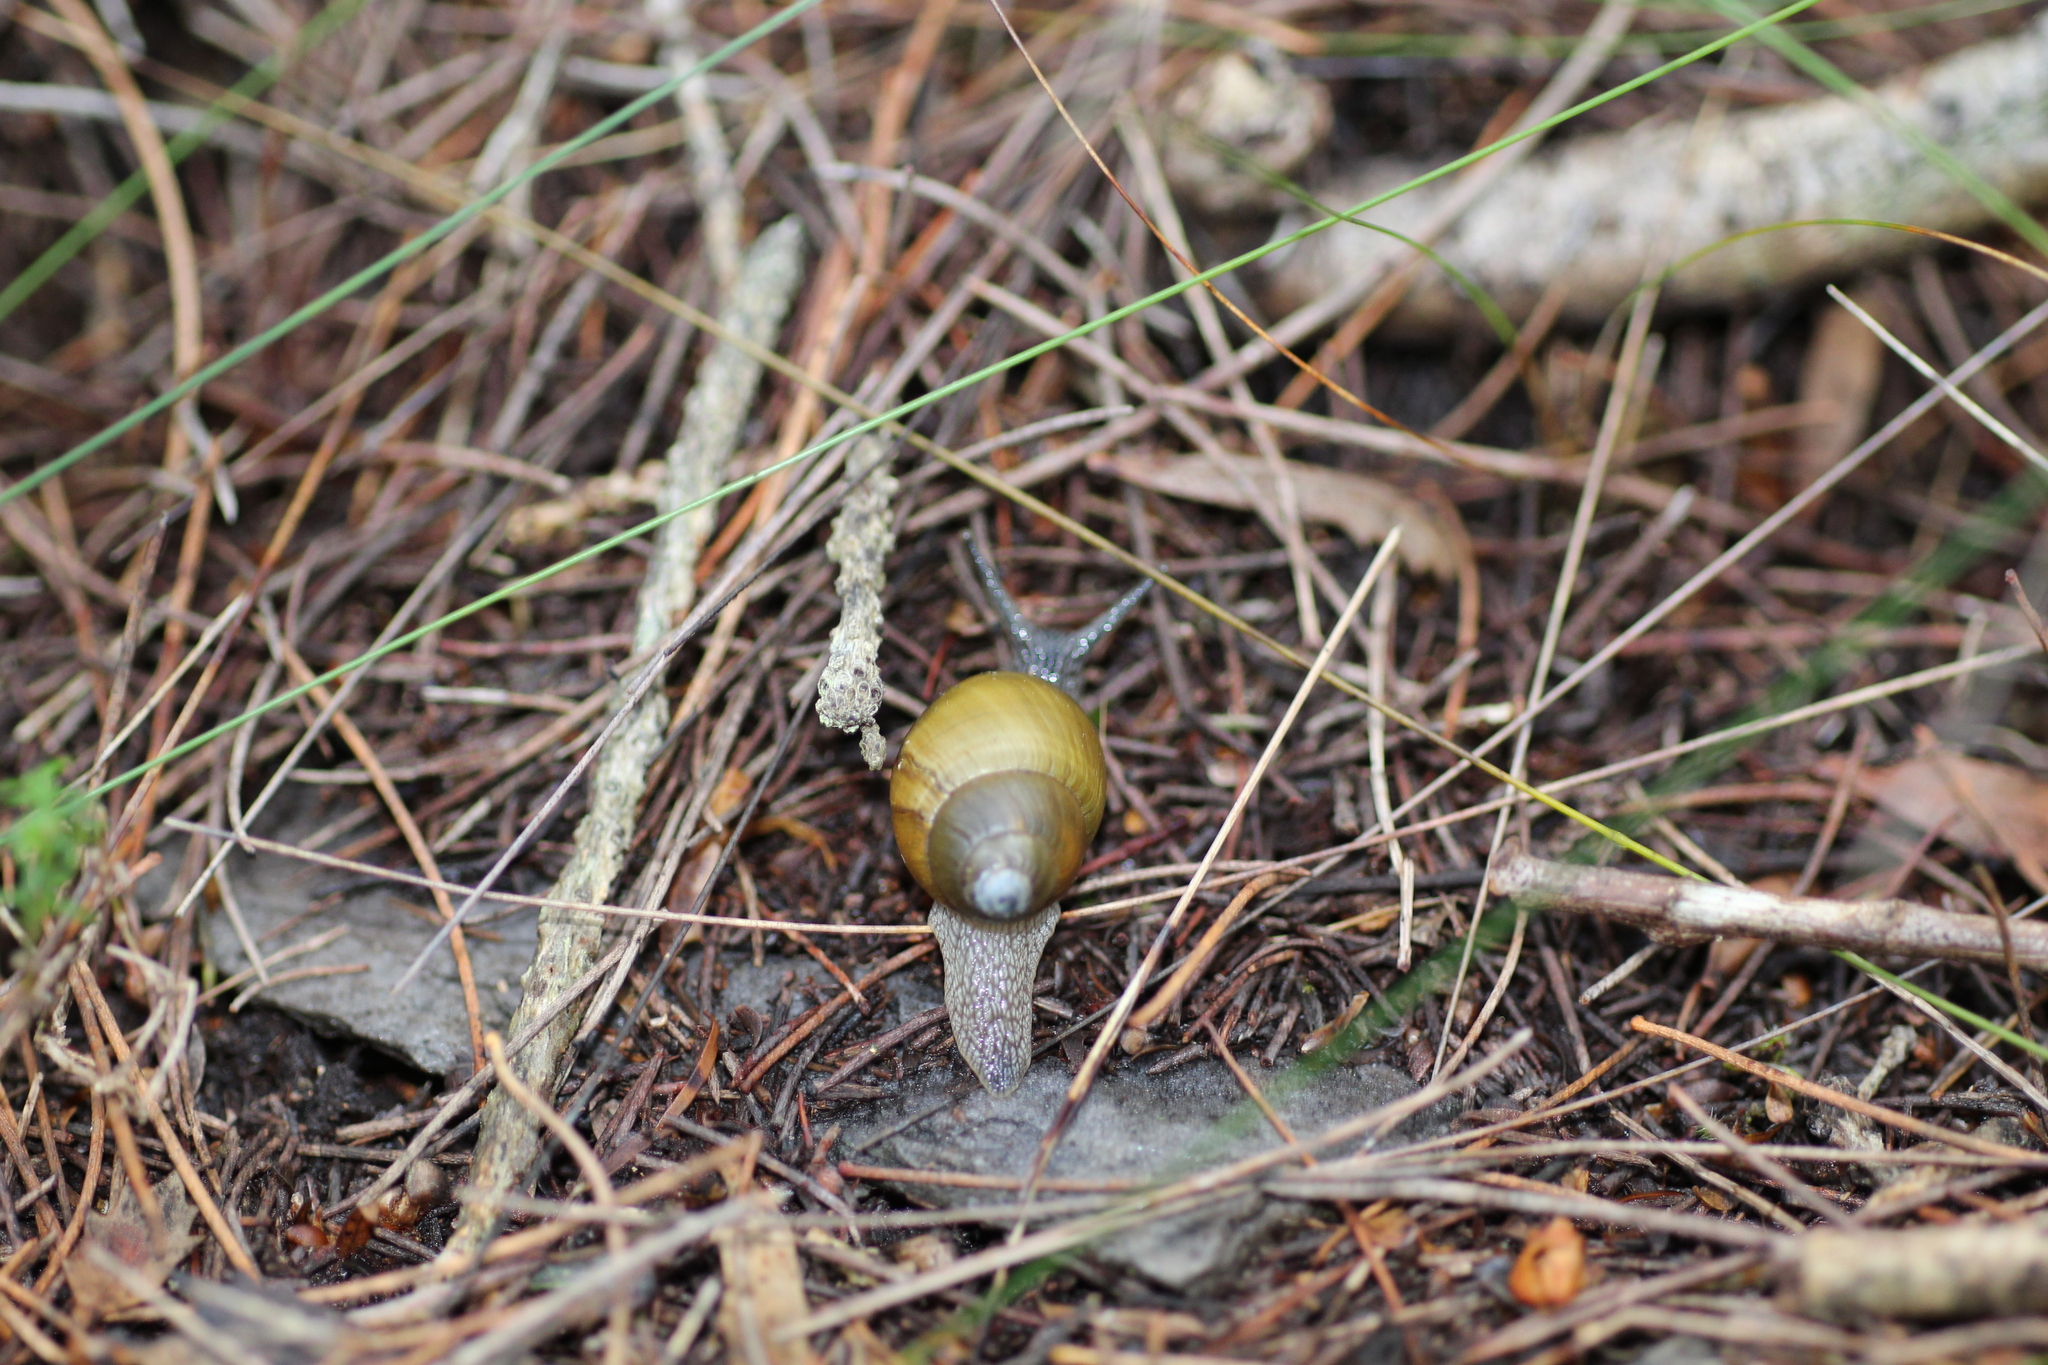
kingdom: Animalia
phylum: Mollusca
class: Gastropoda
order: Stylommatophora
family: Bothriembryontidae
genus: Bothriembryon
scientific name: Bothriembryon glauerti
